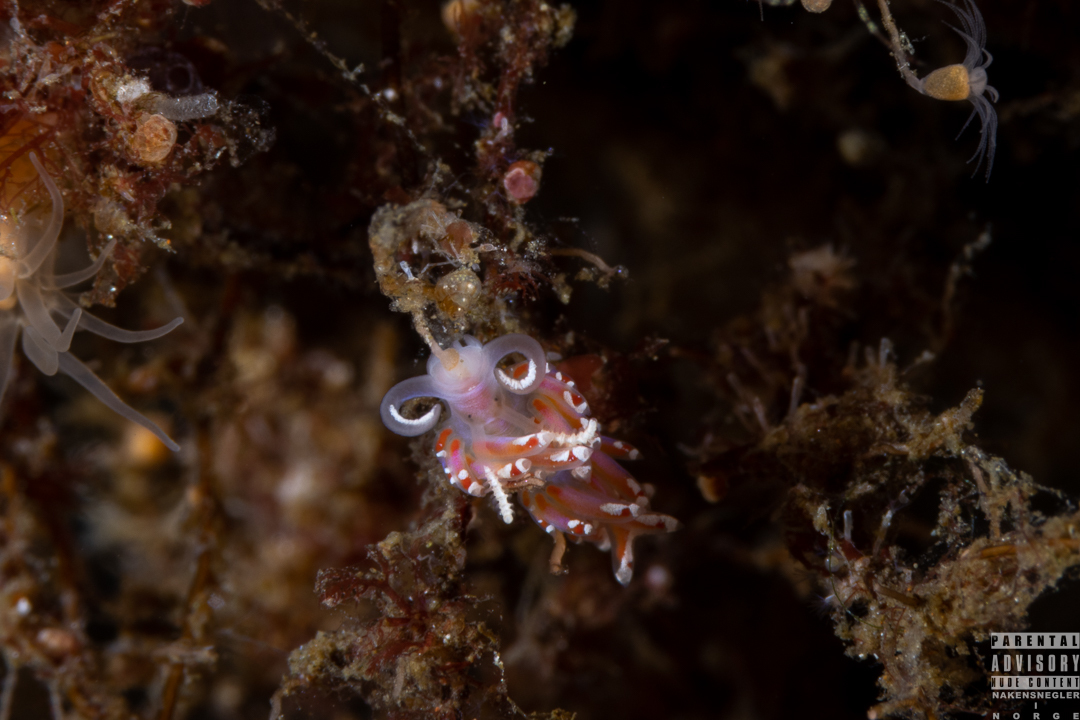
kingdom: Animalia
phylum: Mollusca
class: Gastropoda
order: Nudibranchia
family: Facelinidae
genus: Facelina
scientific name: Facelina auriculata
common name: Slender facelina
